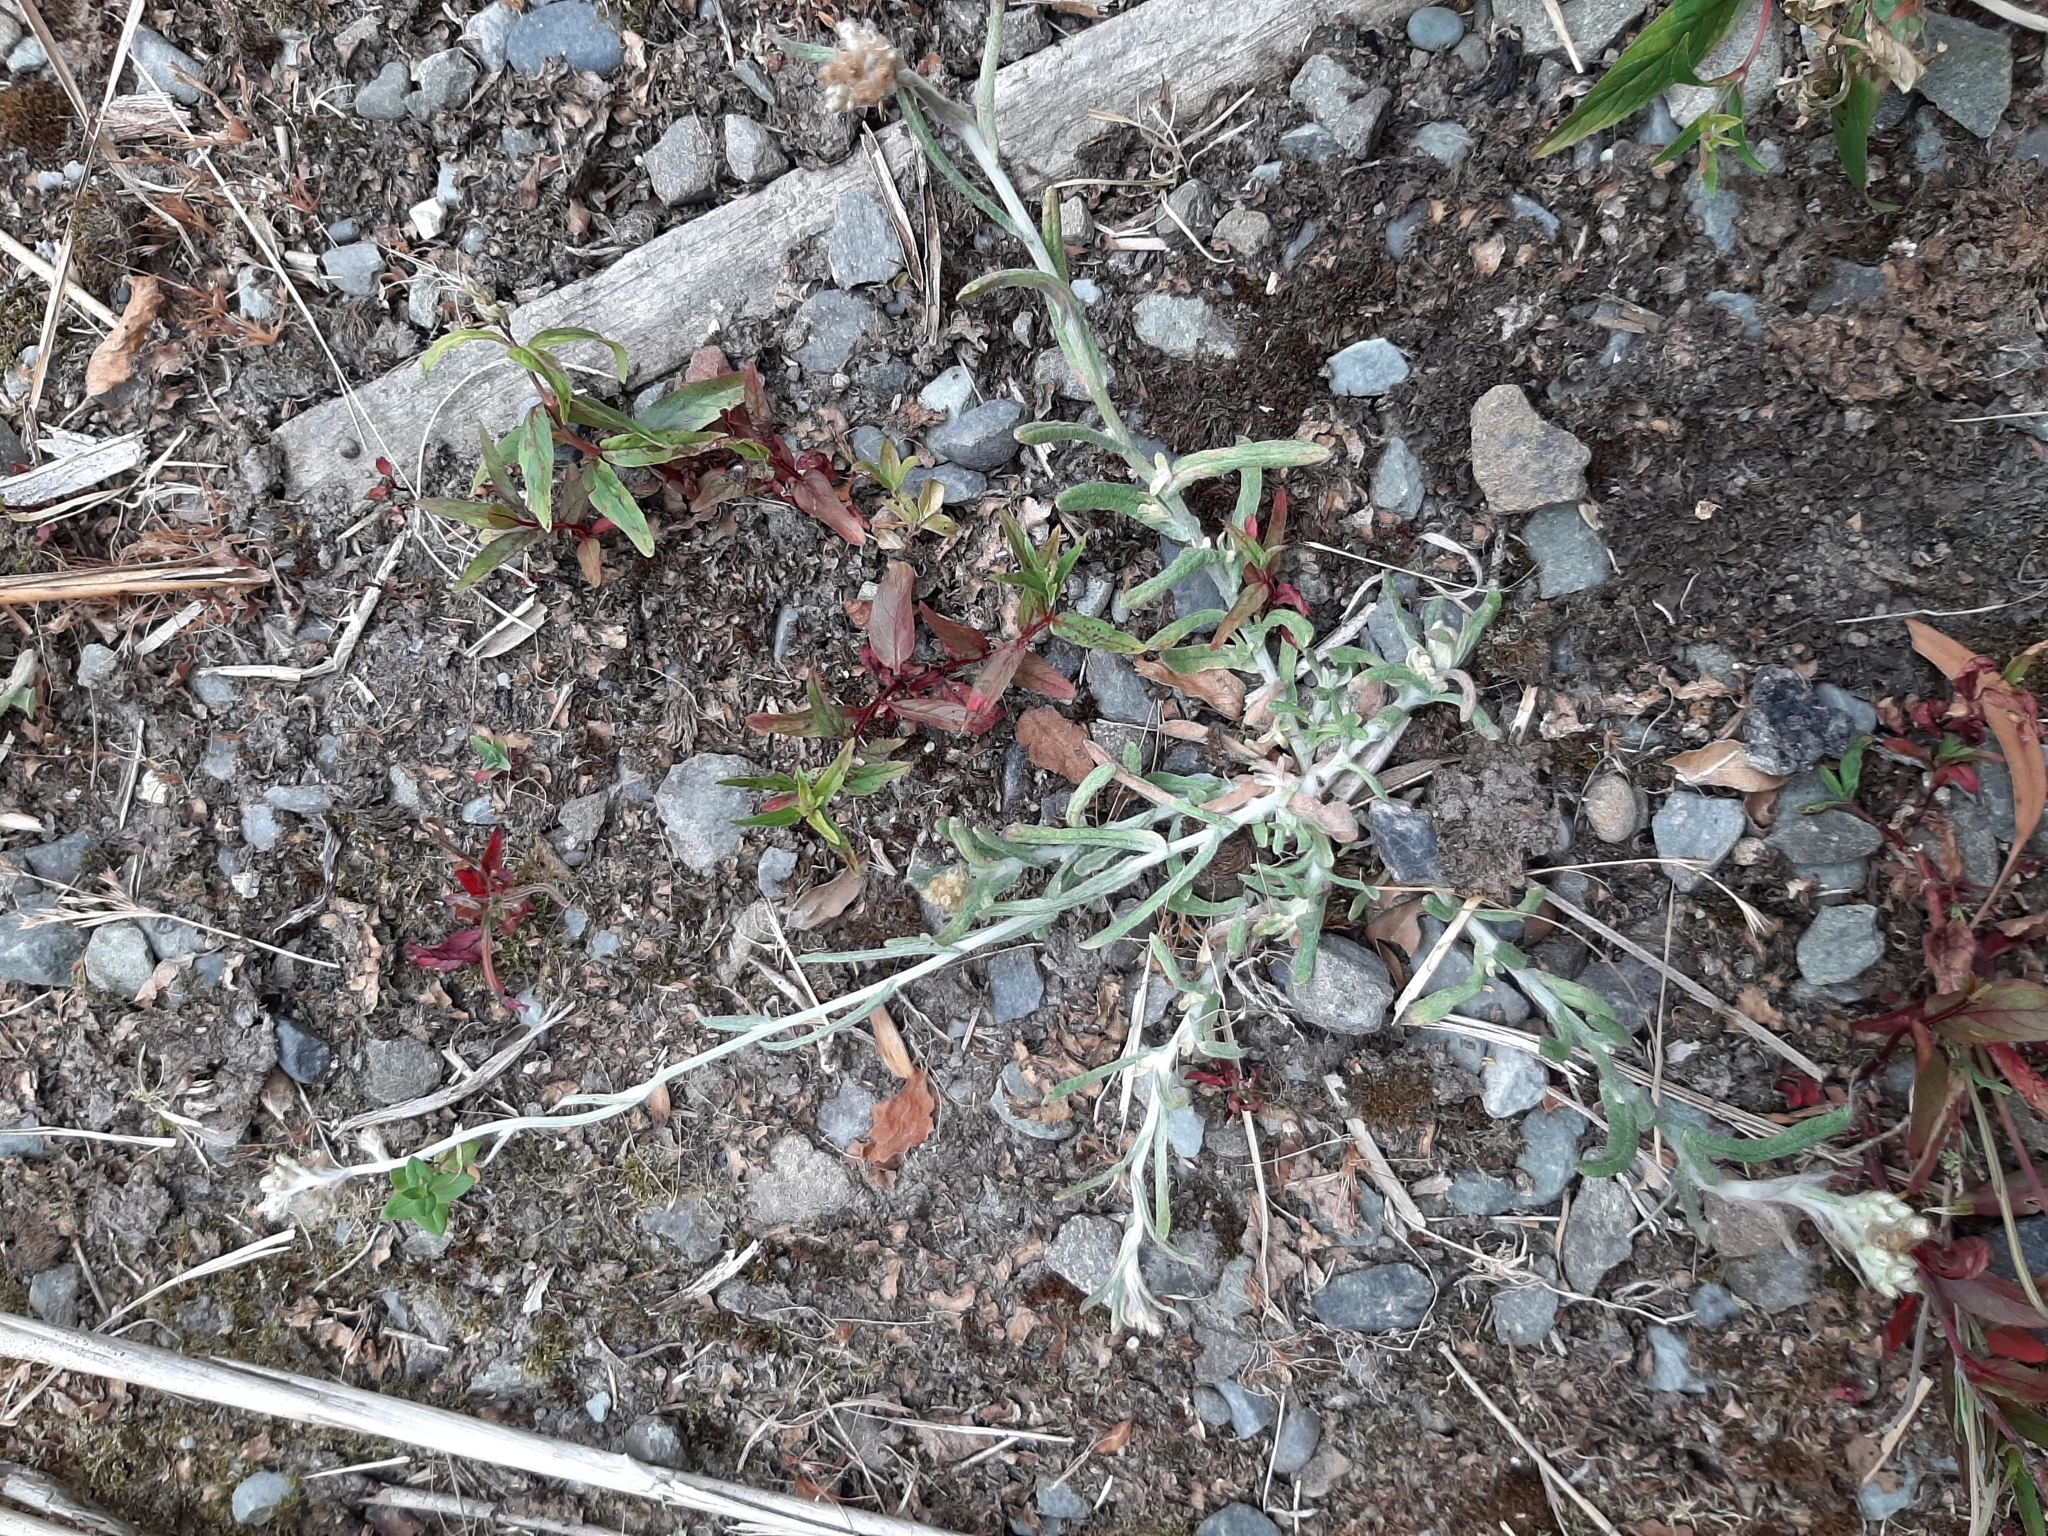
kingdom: Plantae
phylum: Tracheophyta
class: Magnoliopsida
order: Asterales
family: Asteraceae
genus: Helichrysum
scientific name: Helichrysum luteoalbum
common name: Daisy
